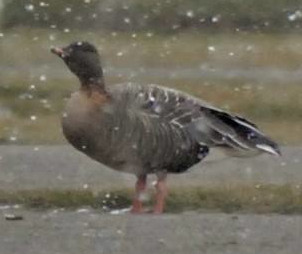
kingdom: Animalia
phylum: Chordata
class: Aves
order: Anseriformes
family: Anatidae
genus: Anser
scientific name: Anser brachyrhynchus
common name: Pink-footed goose
